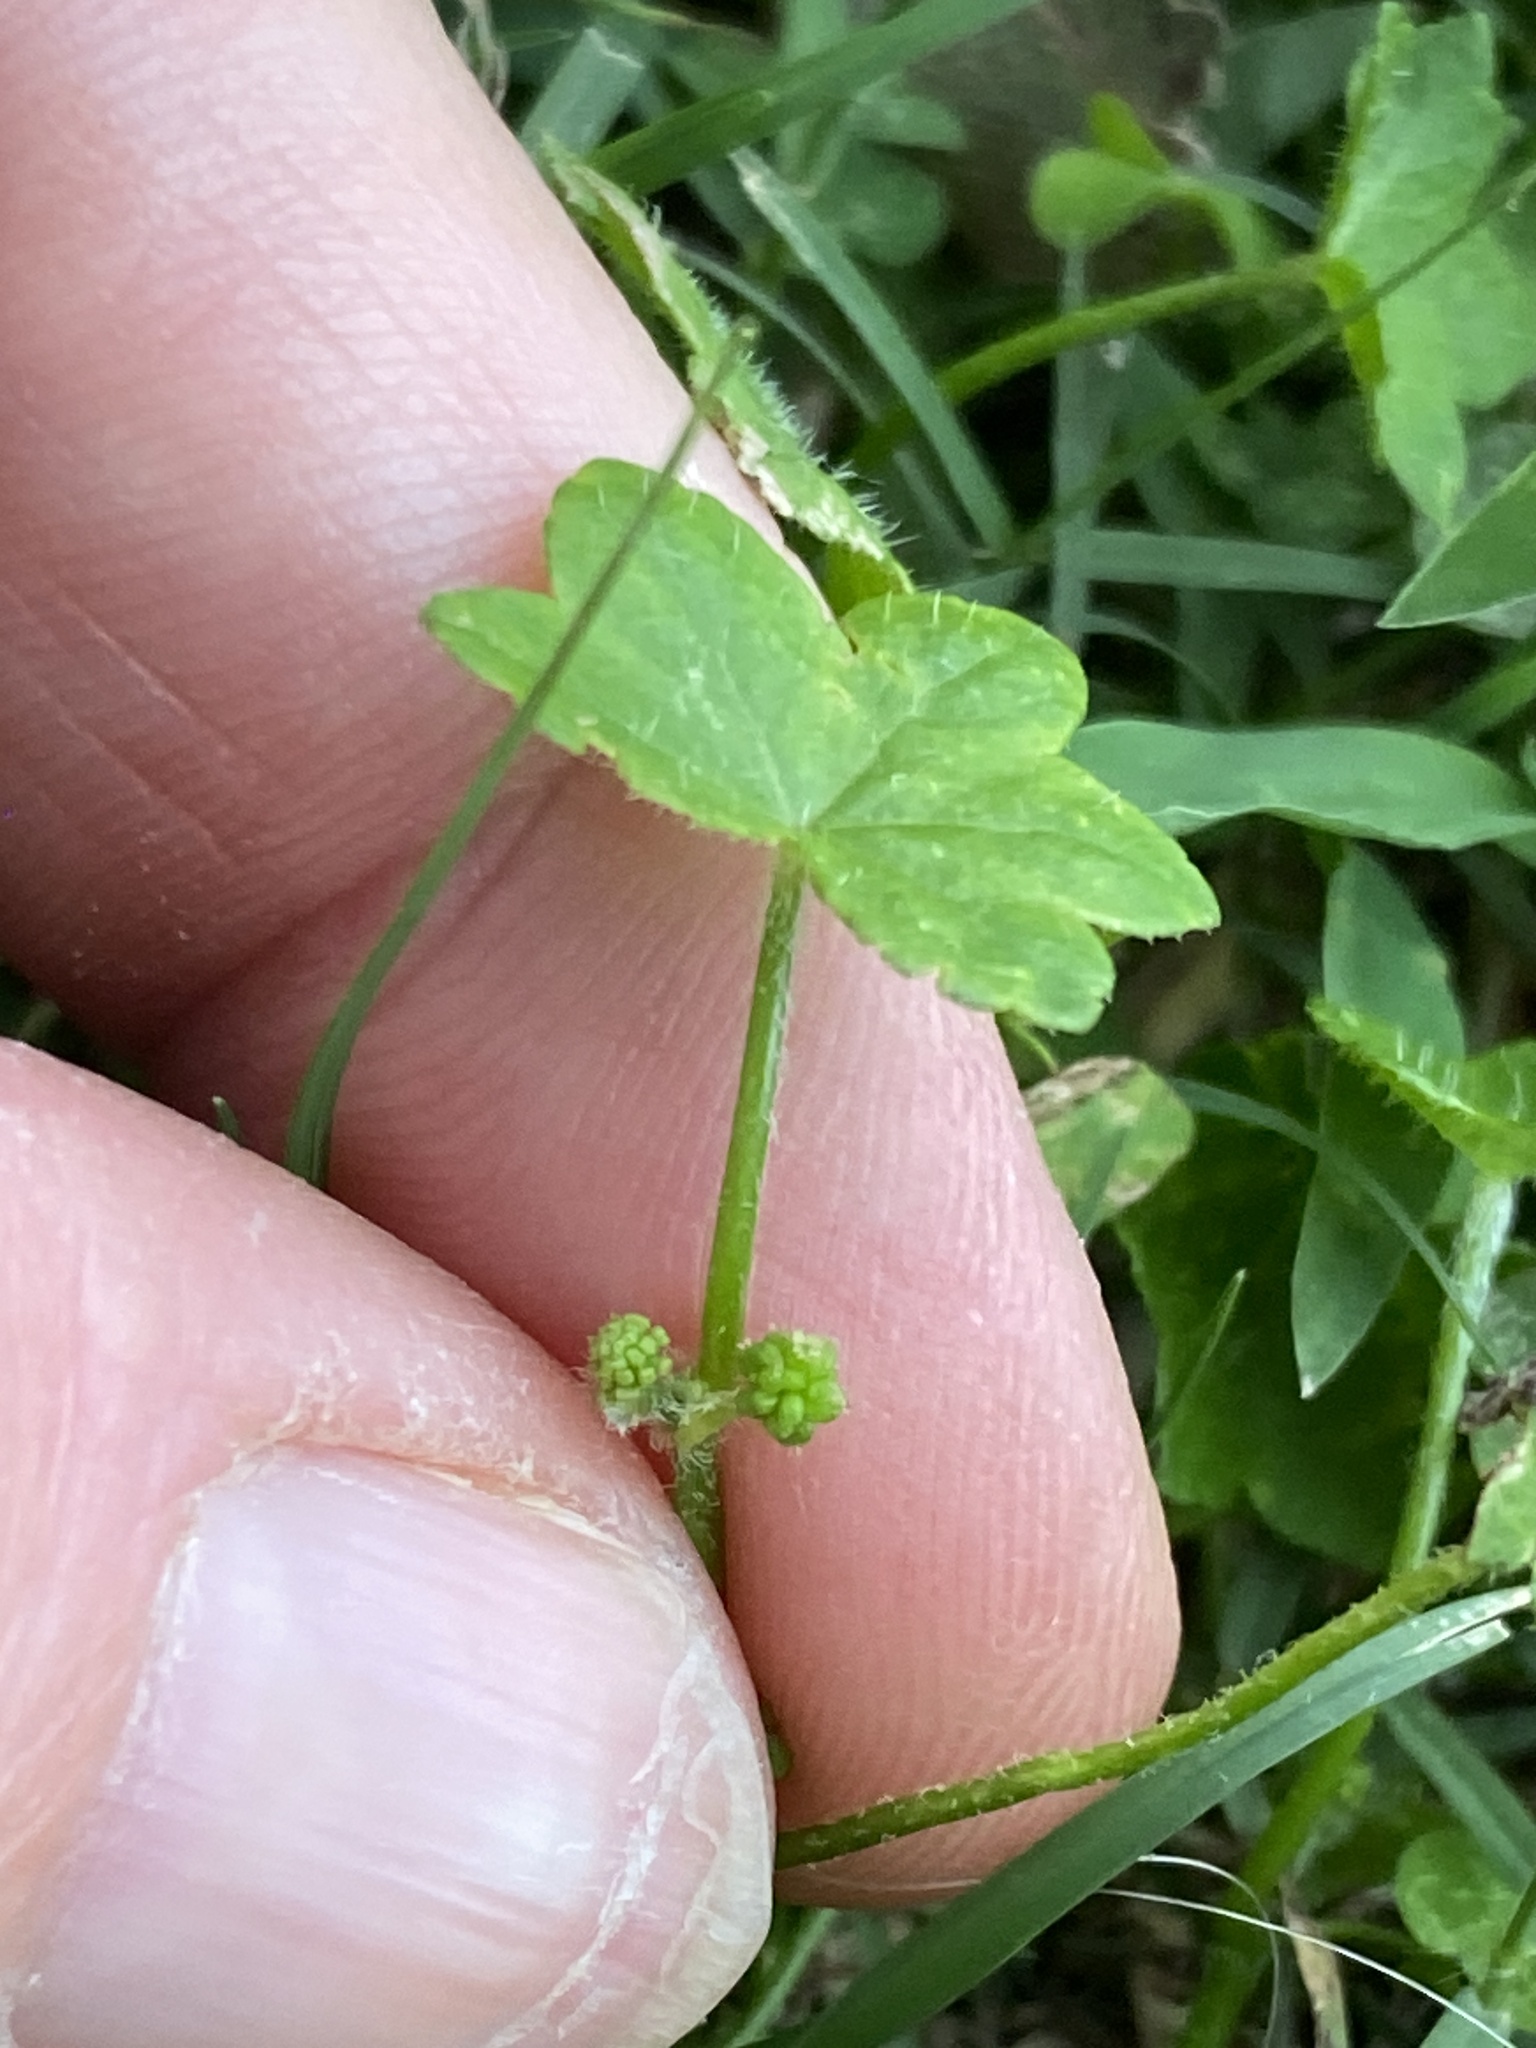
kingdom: Plantae
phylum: Tracheophyta
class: Magnoliopsida
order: Apiales
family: Araliaceae
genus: Hydrocotyle
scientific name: Hydrocotyle acutiloba
